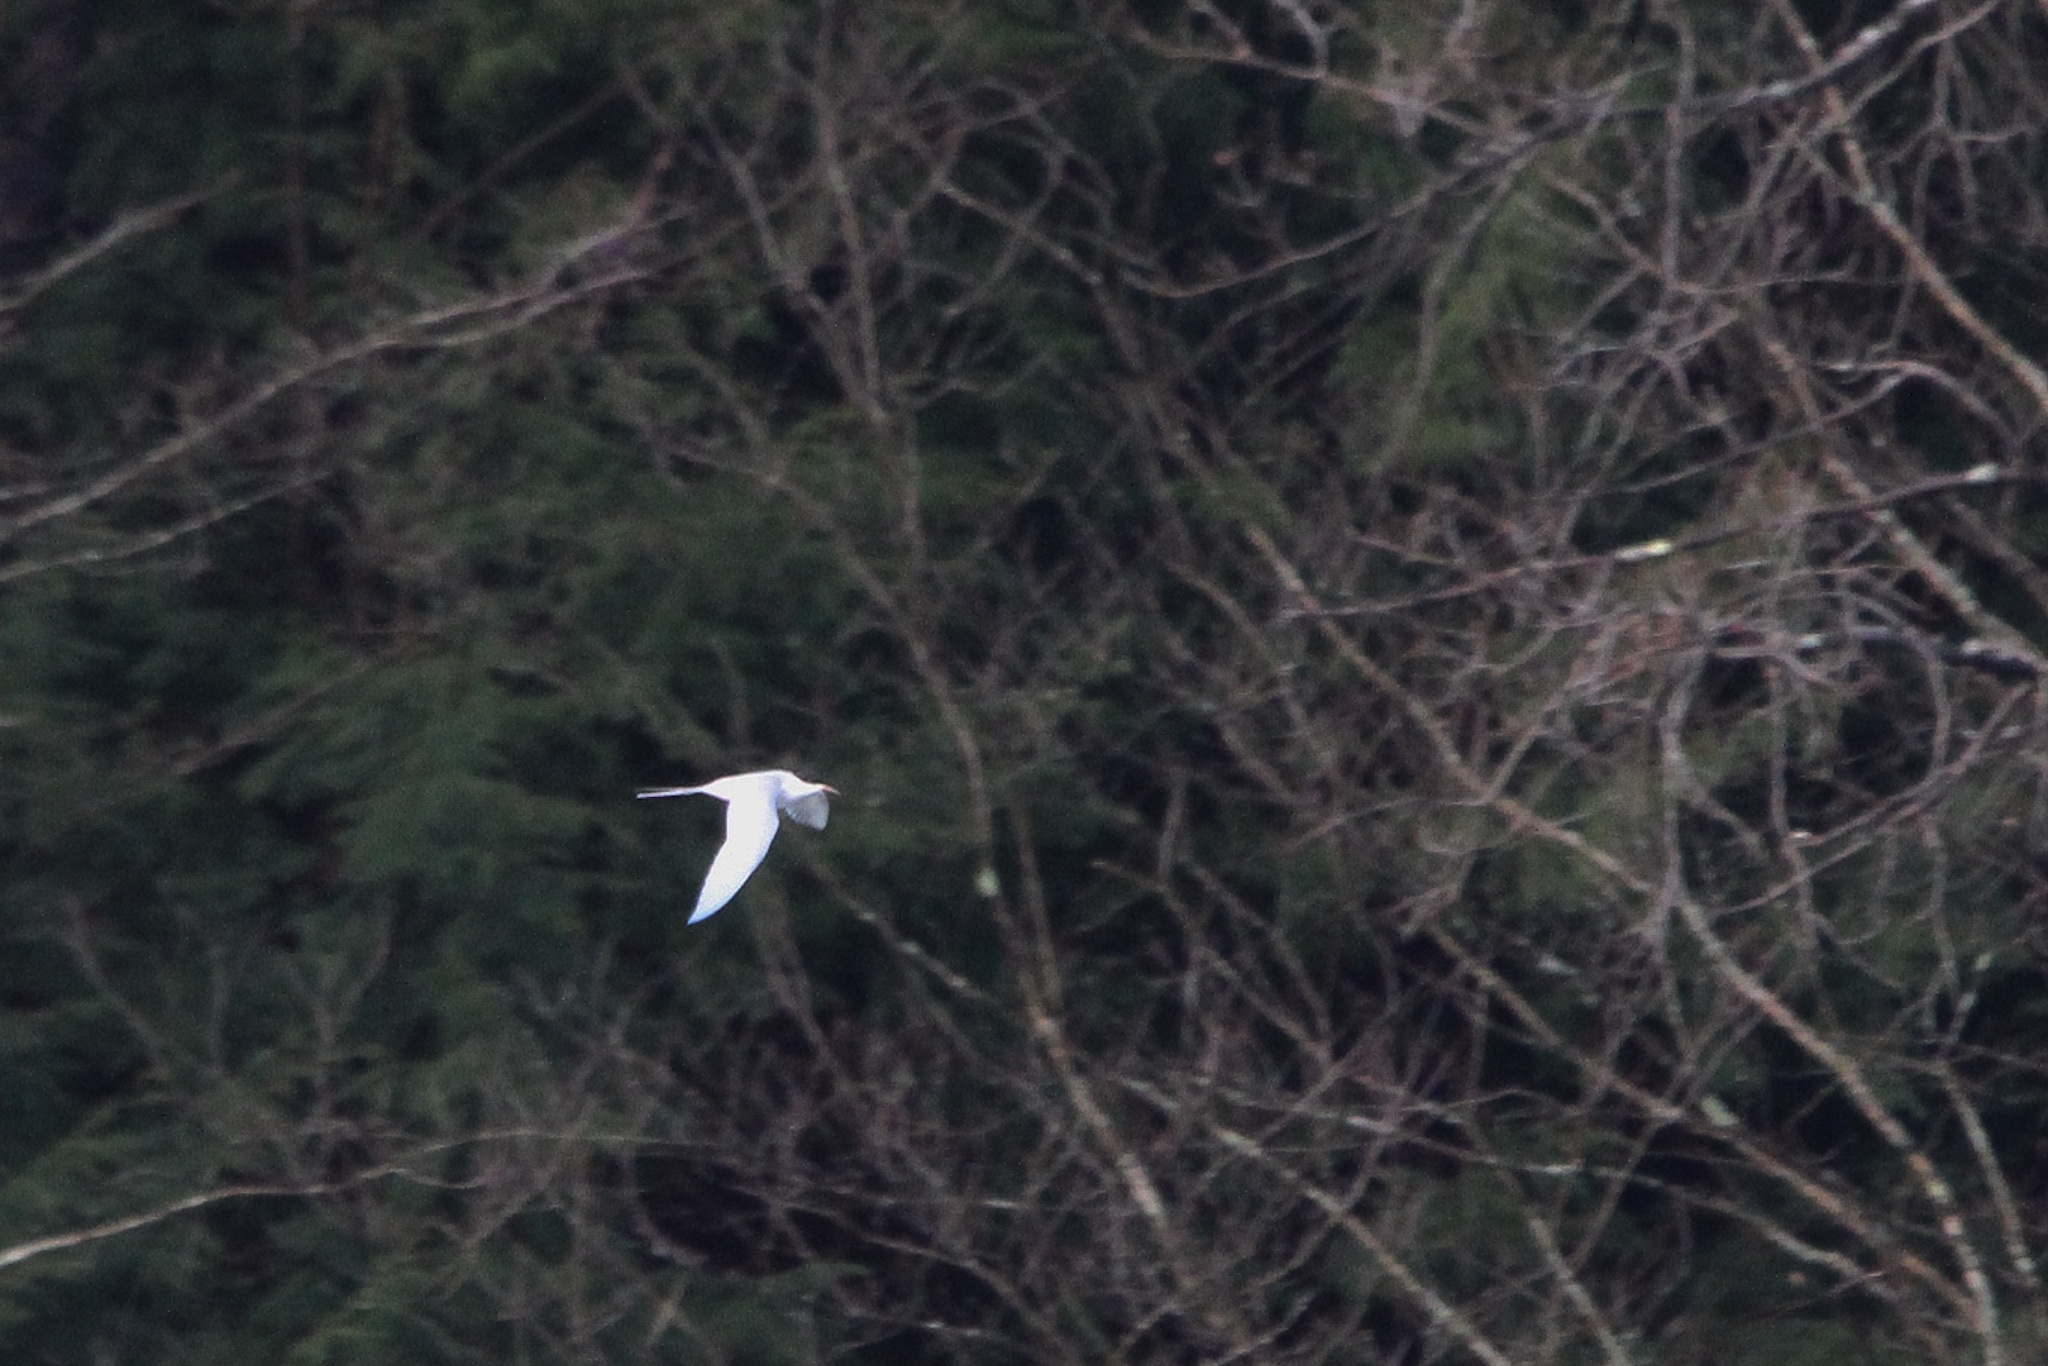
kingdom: Animalia
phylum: Chordata
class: Aves
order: Charadriiformes
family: Laridae
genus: Sterna
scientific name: Sterna forsteri
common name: Forster's tern
